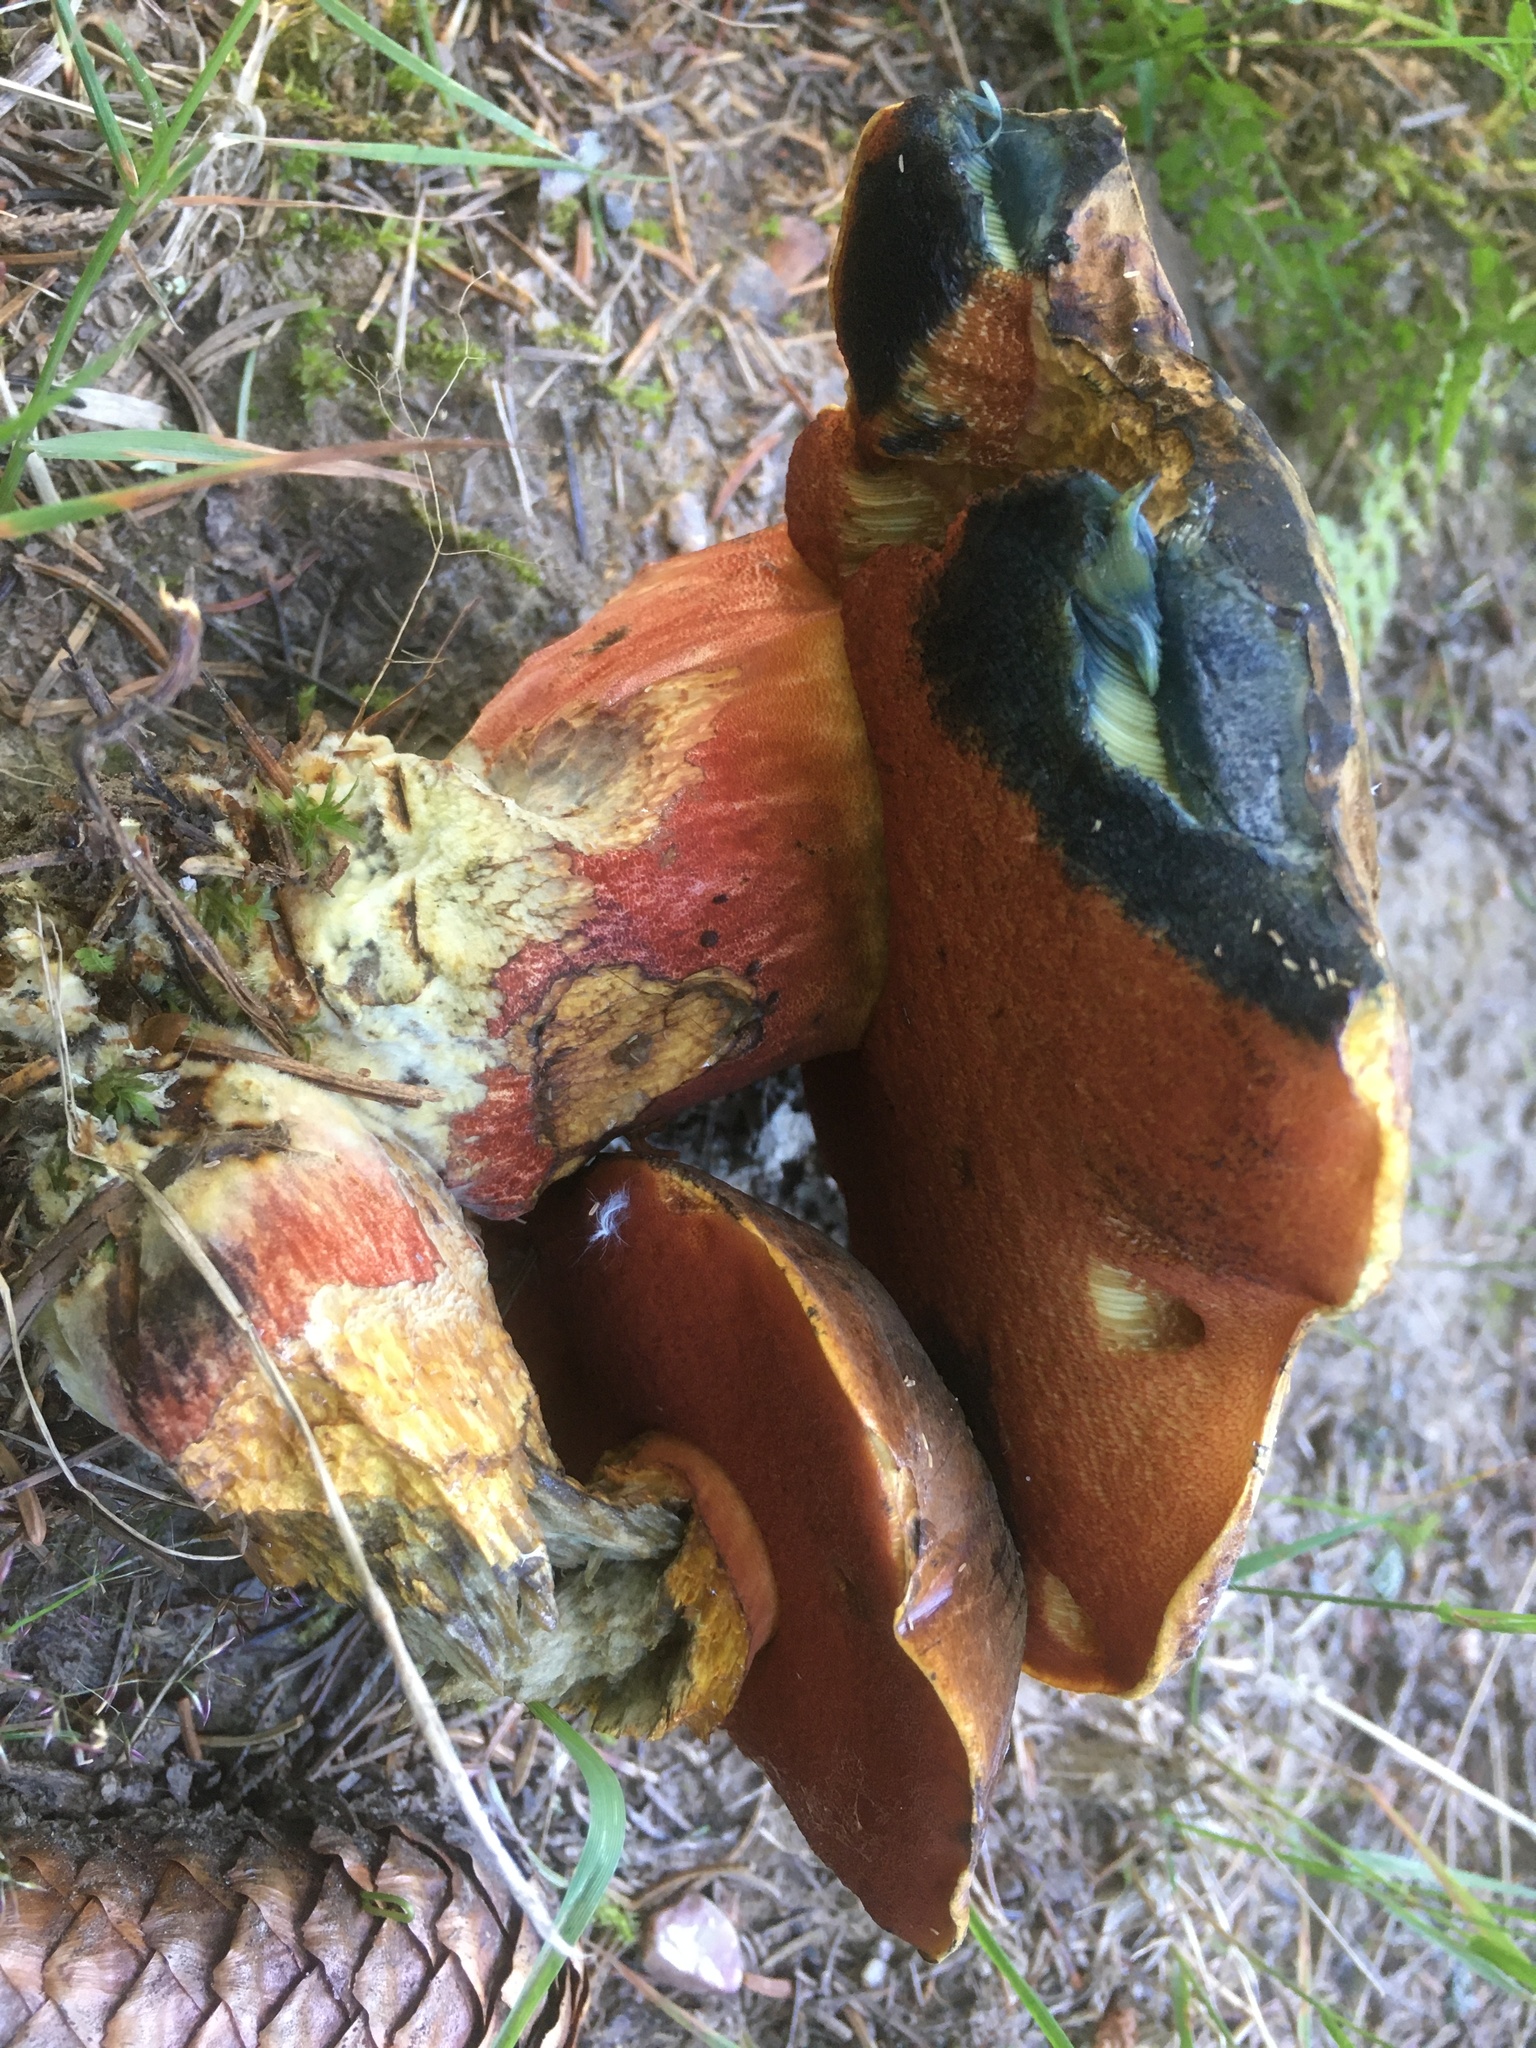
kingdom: Fungi
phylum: Basidiomycota
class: Agaricomycetes
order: Boletales
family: Boletaceae
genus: Neoboletus
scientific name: Neoboletus luridiformis
